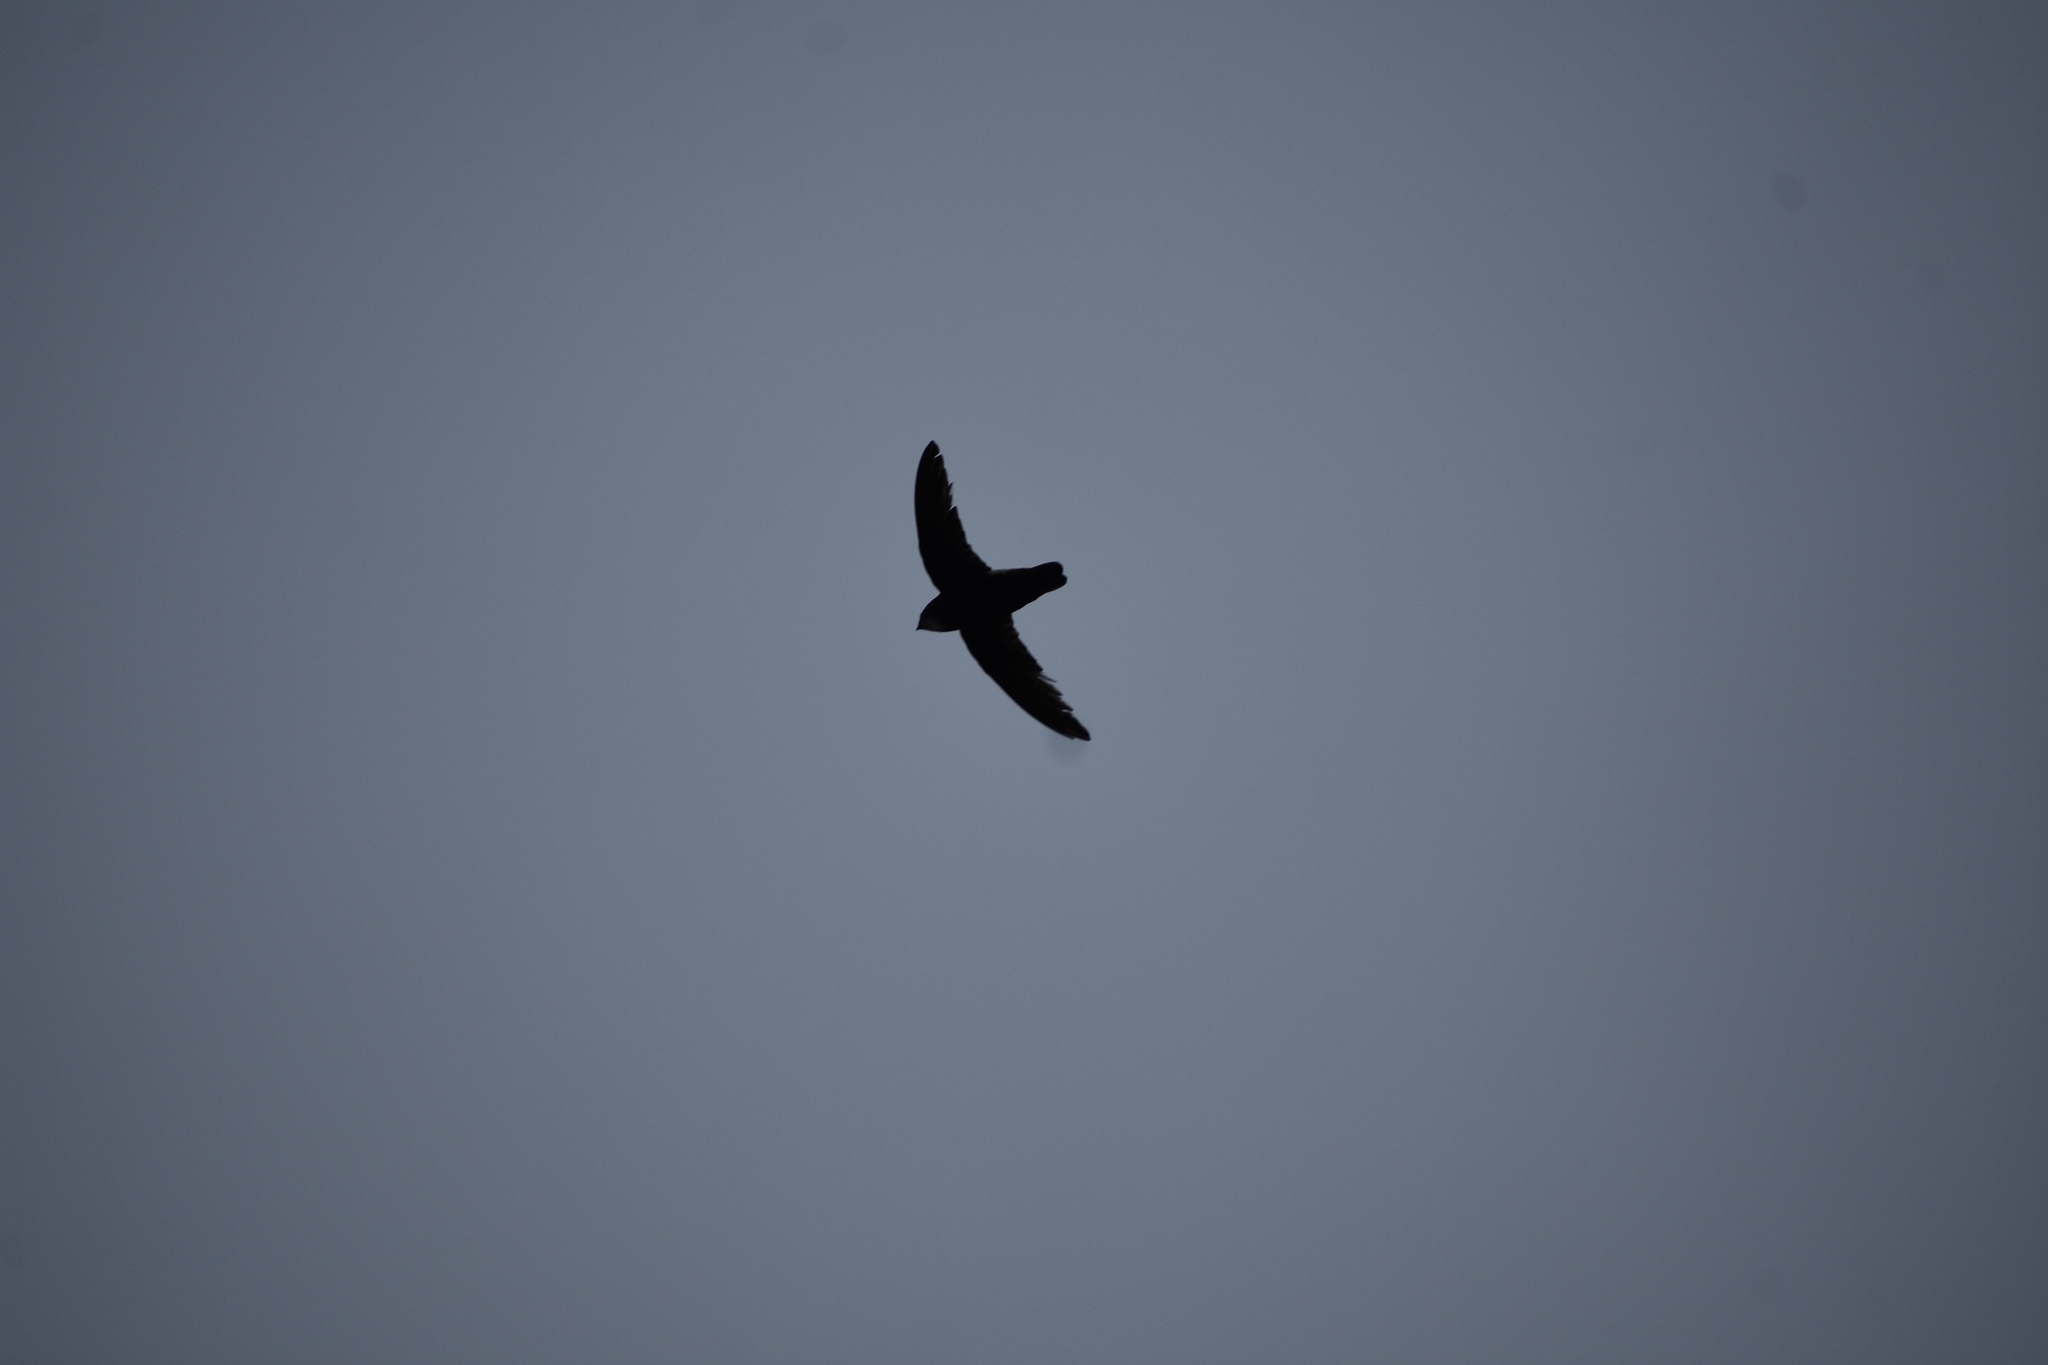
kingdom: Animalia
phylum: Chordata
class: Aves
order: Apodiformes
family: Apodidae
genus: Apus
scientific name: Apus affinis
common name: Little swift
